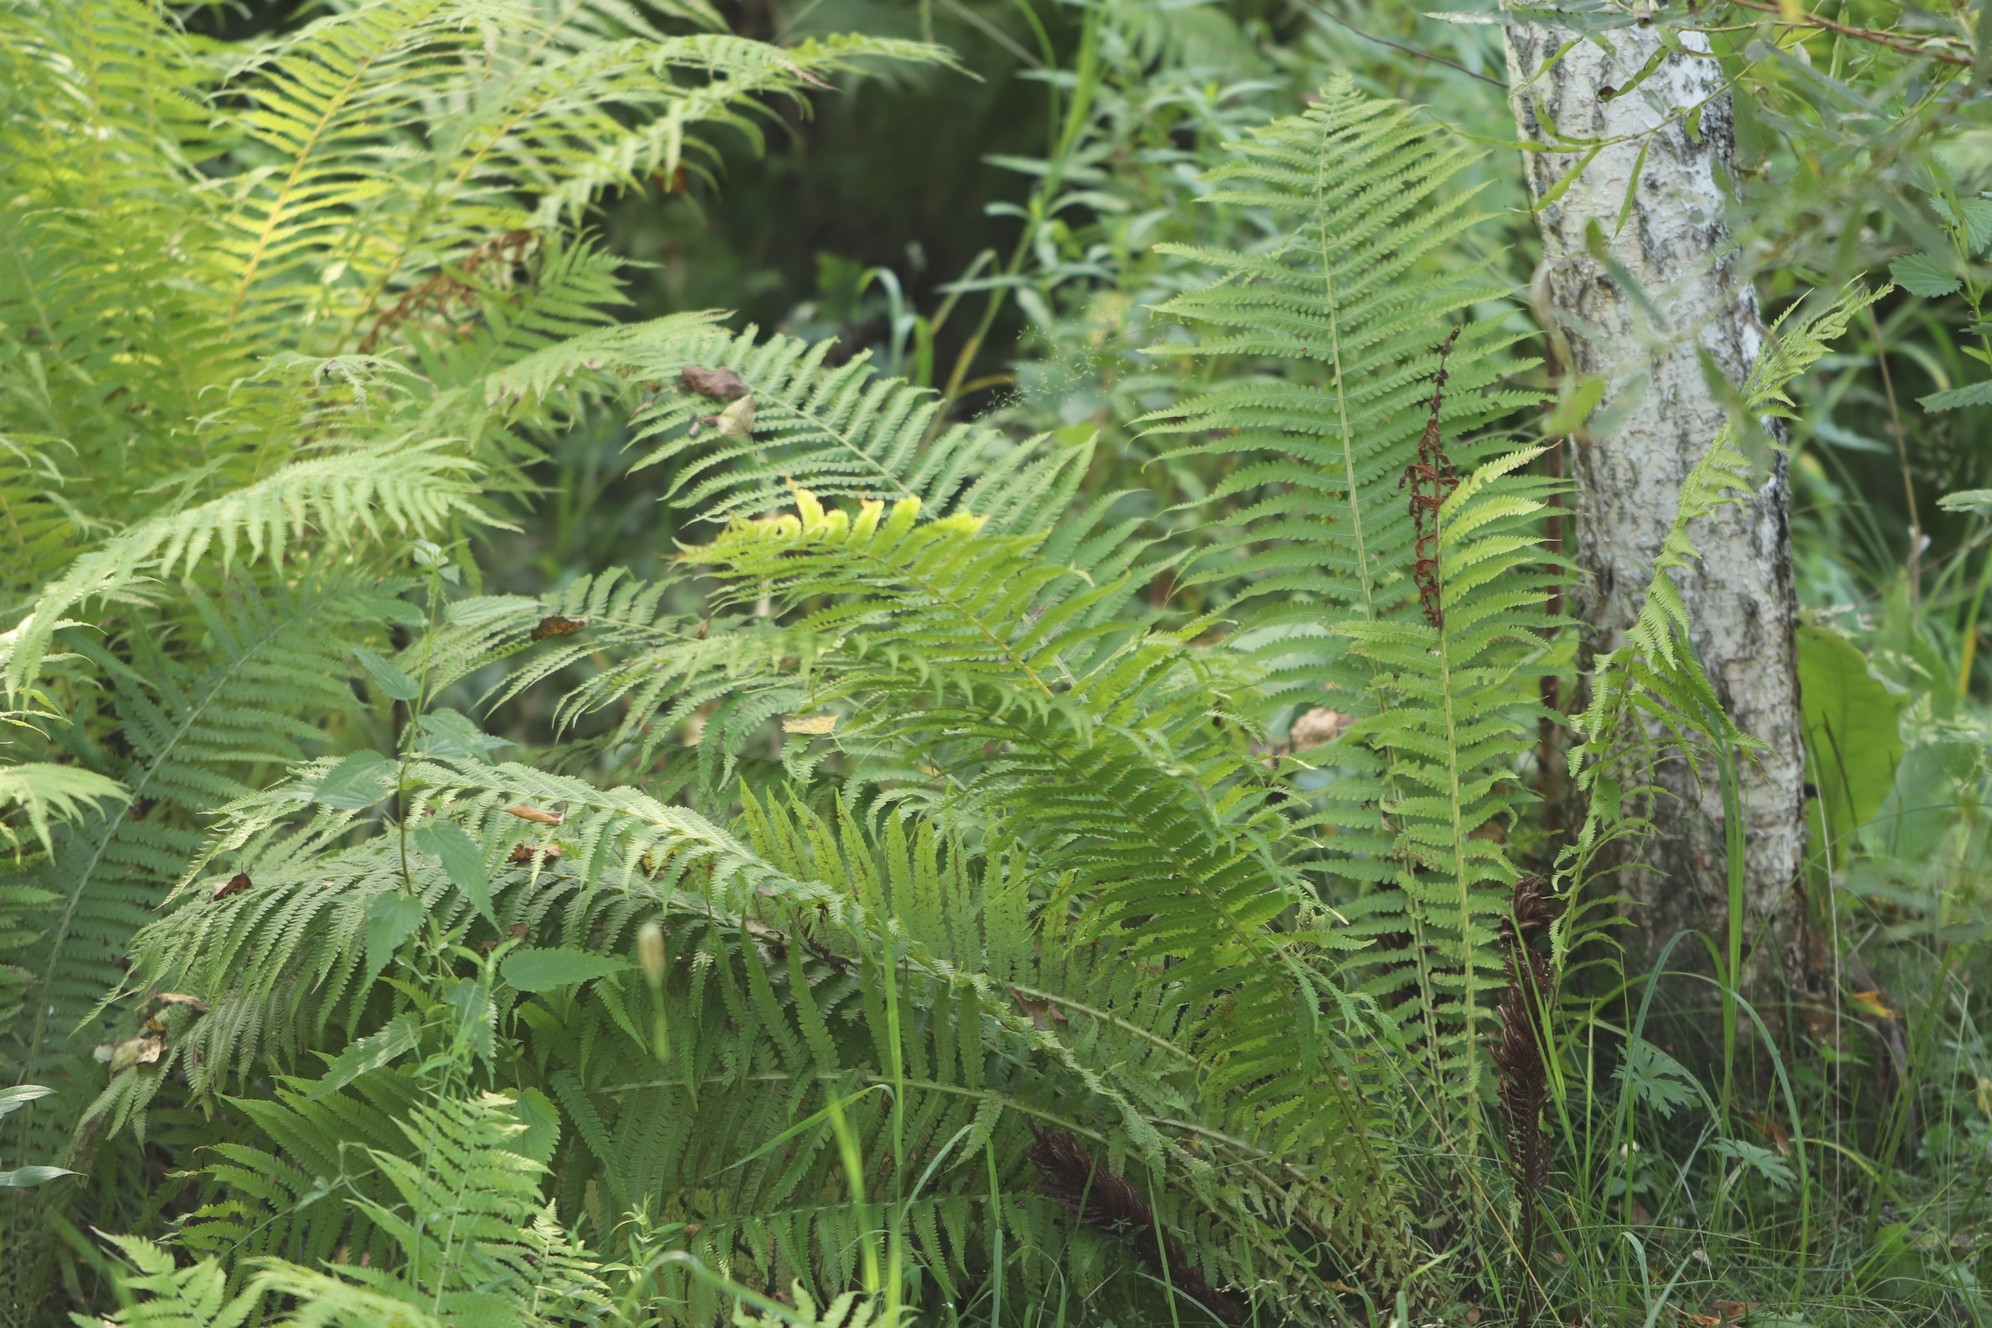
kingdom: Plantae
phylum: Tracheophyta
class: Polypodiopsida
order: Polypodiales
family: Onocleaceae
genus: Matteuccia
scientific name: Matteuccia struthiopteris
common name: Ostrich fern
